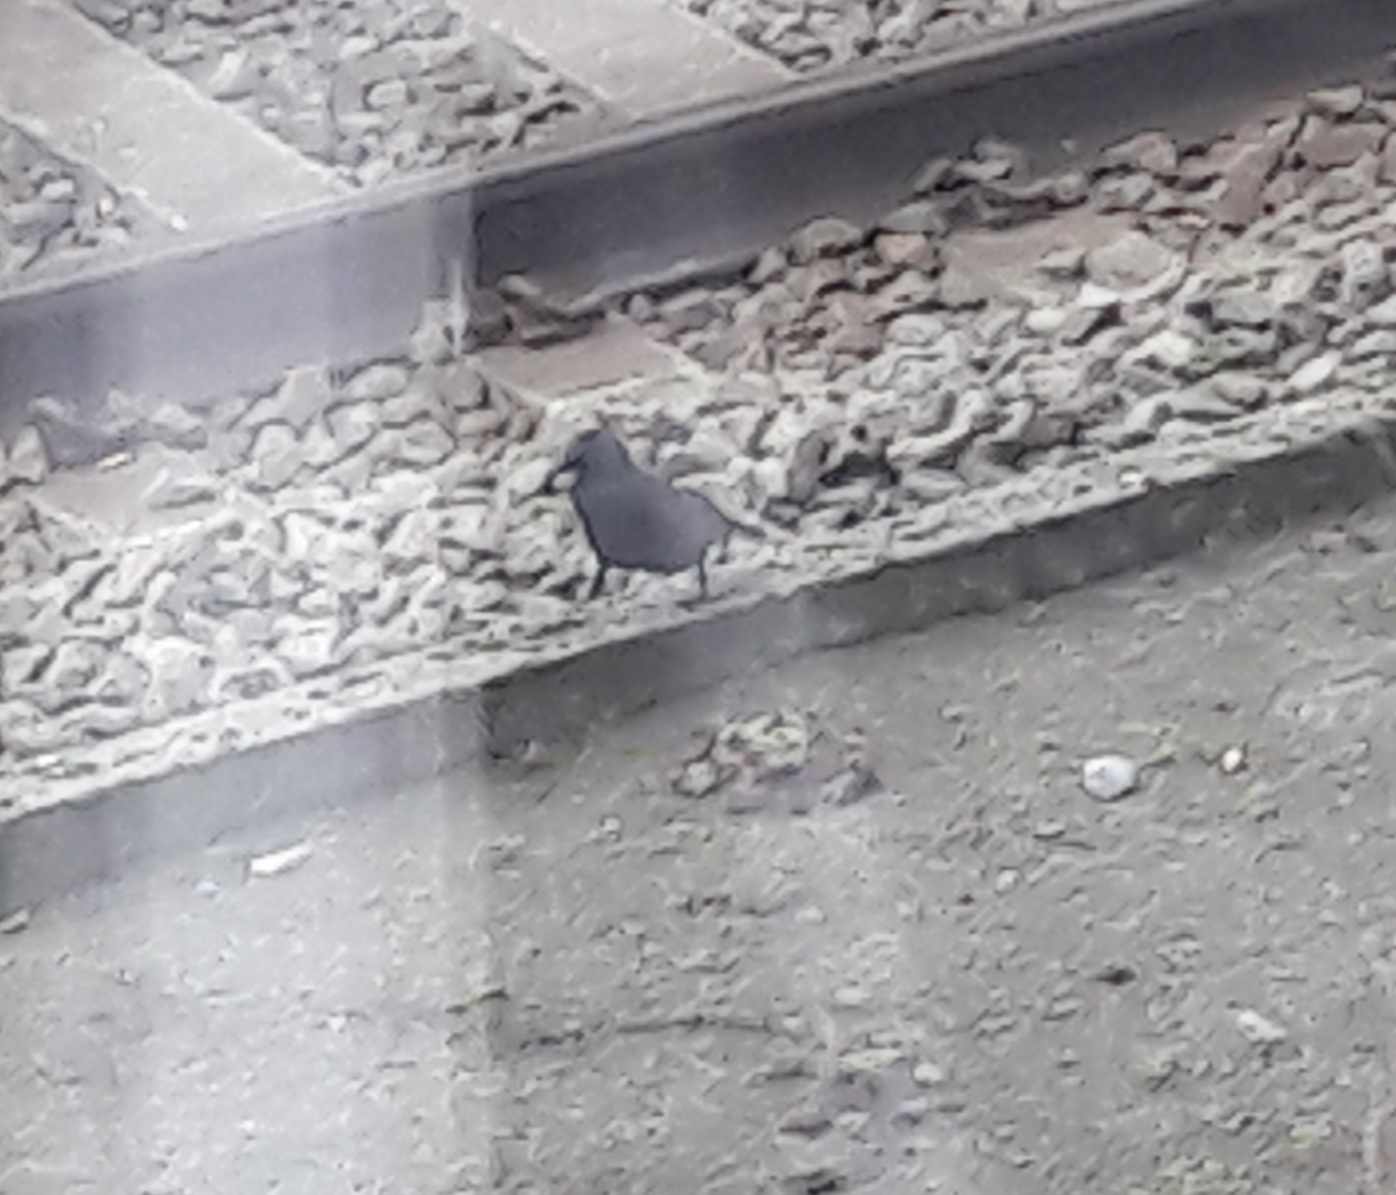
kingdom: Animalia
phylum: Chordata
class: Aves
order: Passeriformes
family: Corvidae
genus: Coloeus
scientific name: Coloeus monedula
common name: Western jackdaw
